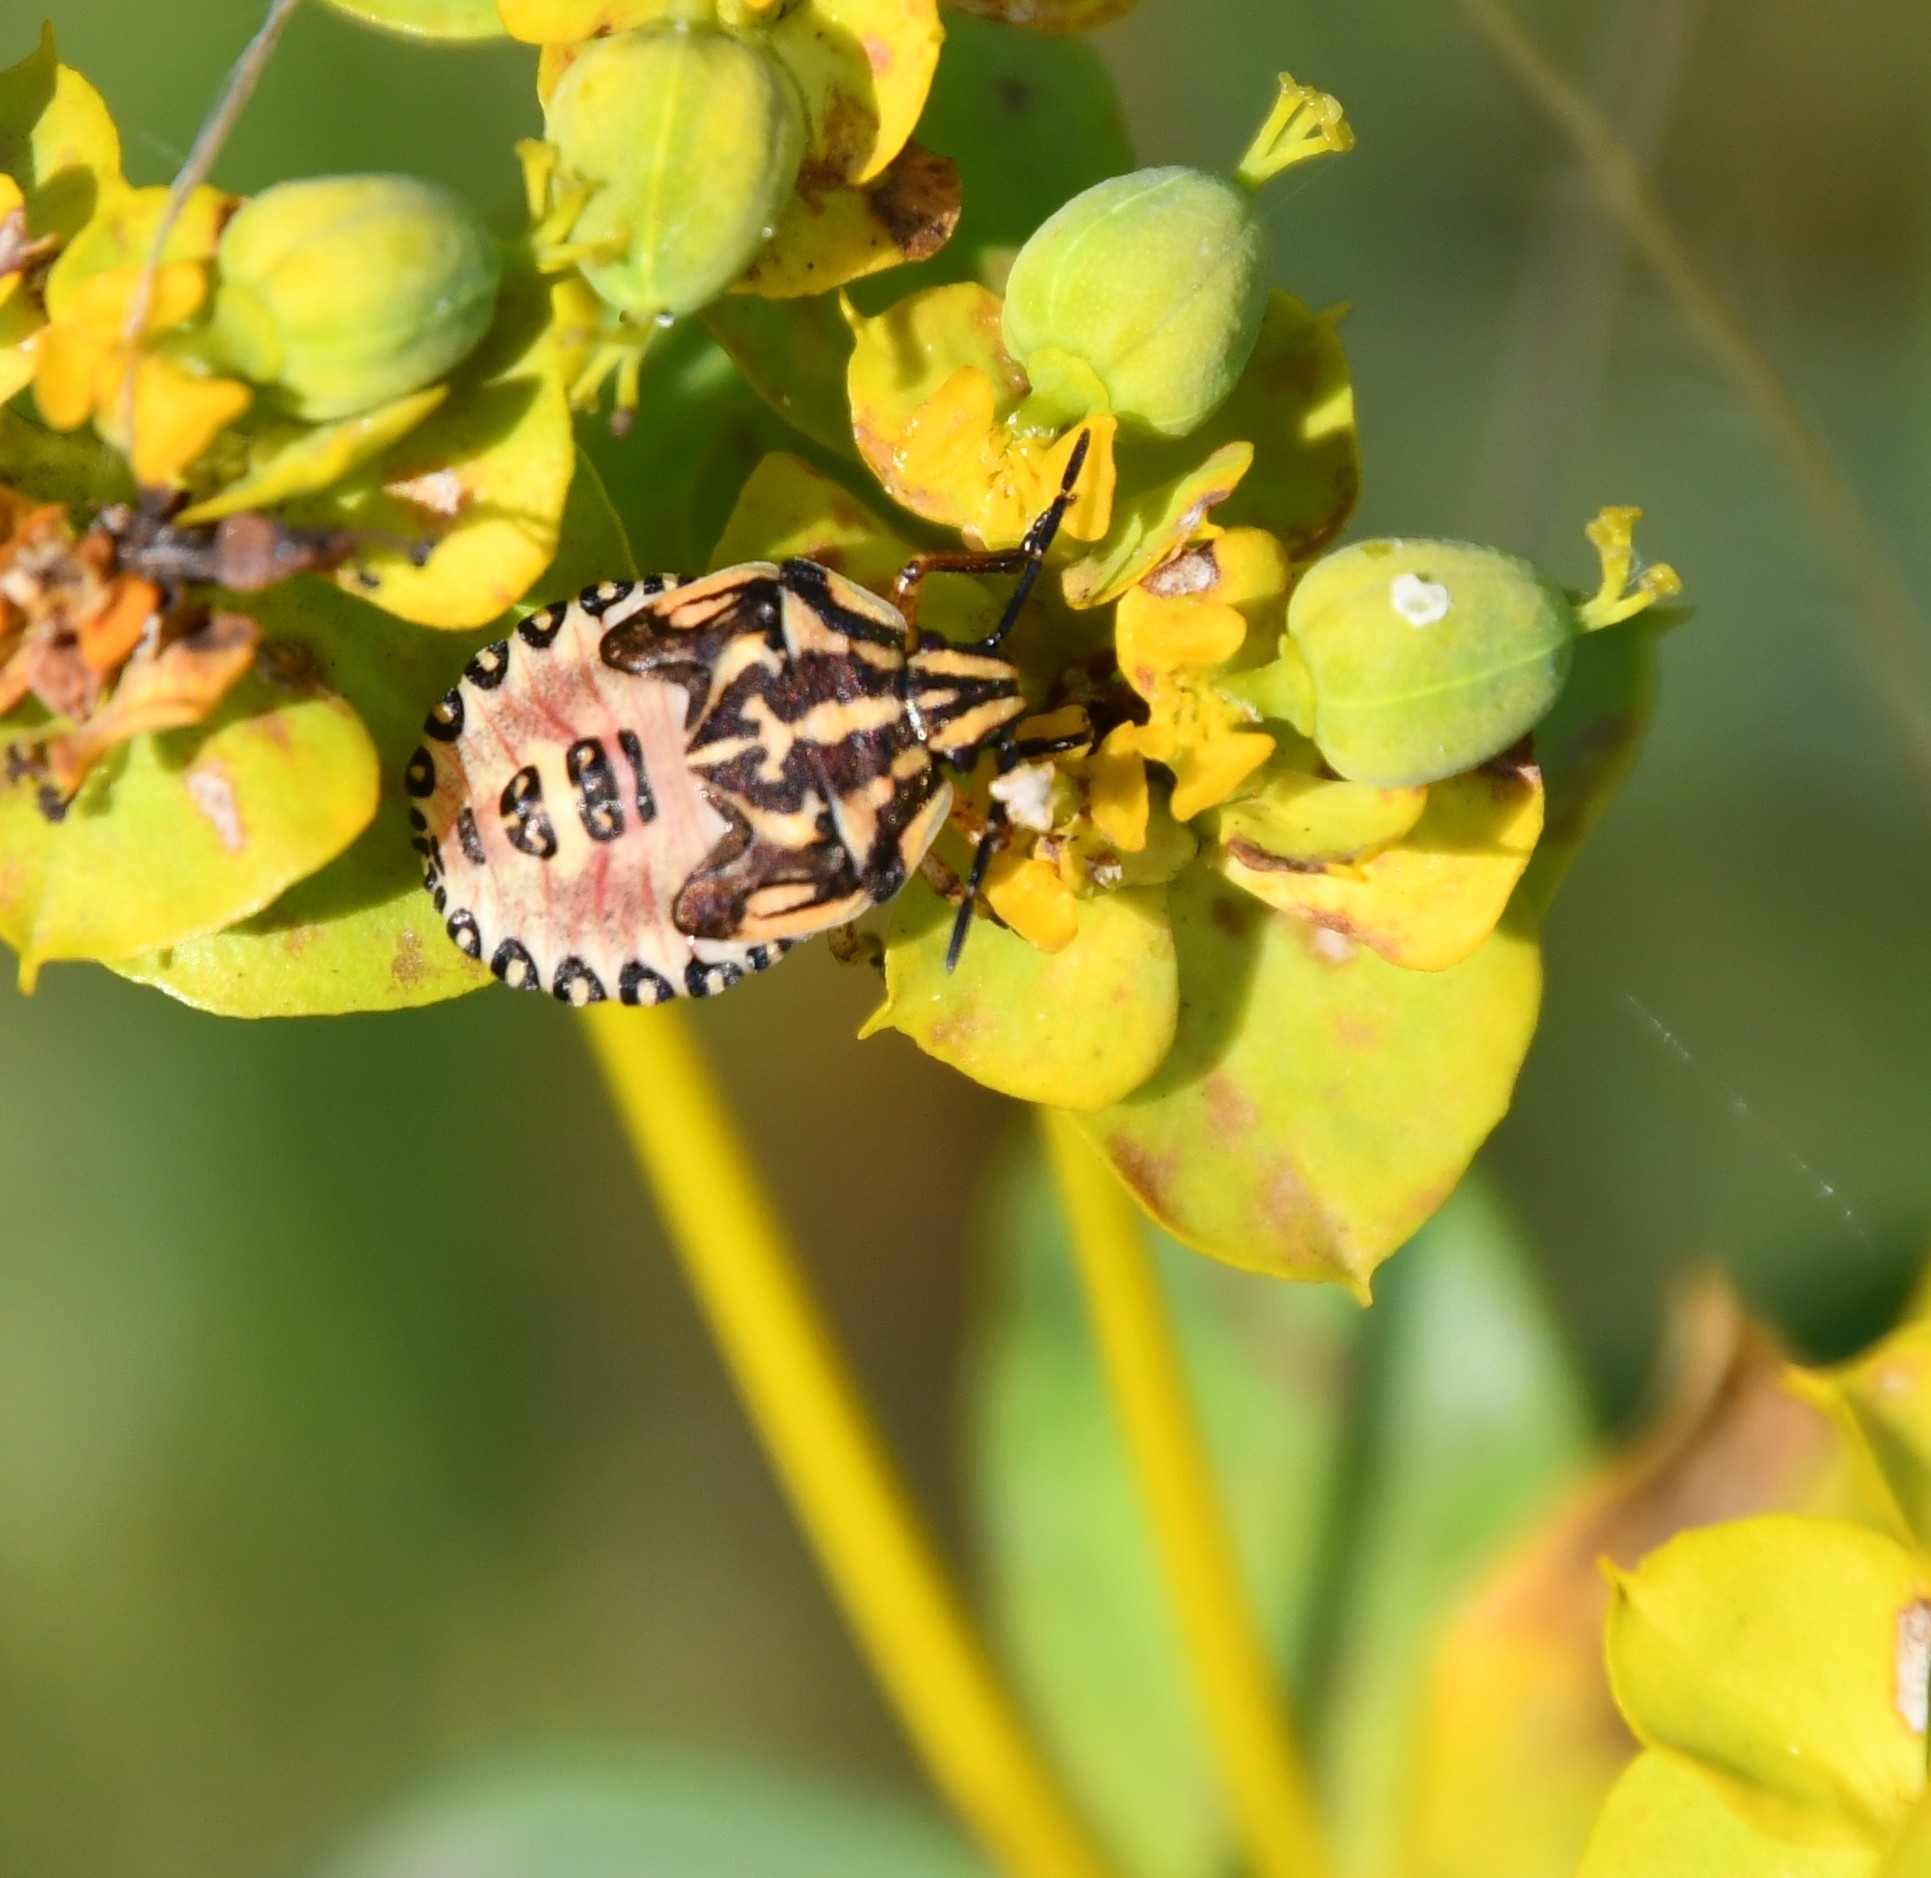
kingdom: Animalia
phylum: Arthropoda
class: Insecta
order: Hemiptera
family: Pentatomidae
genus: Carpocoris
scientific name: Carpocoris purpureipennis
